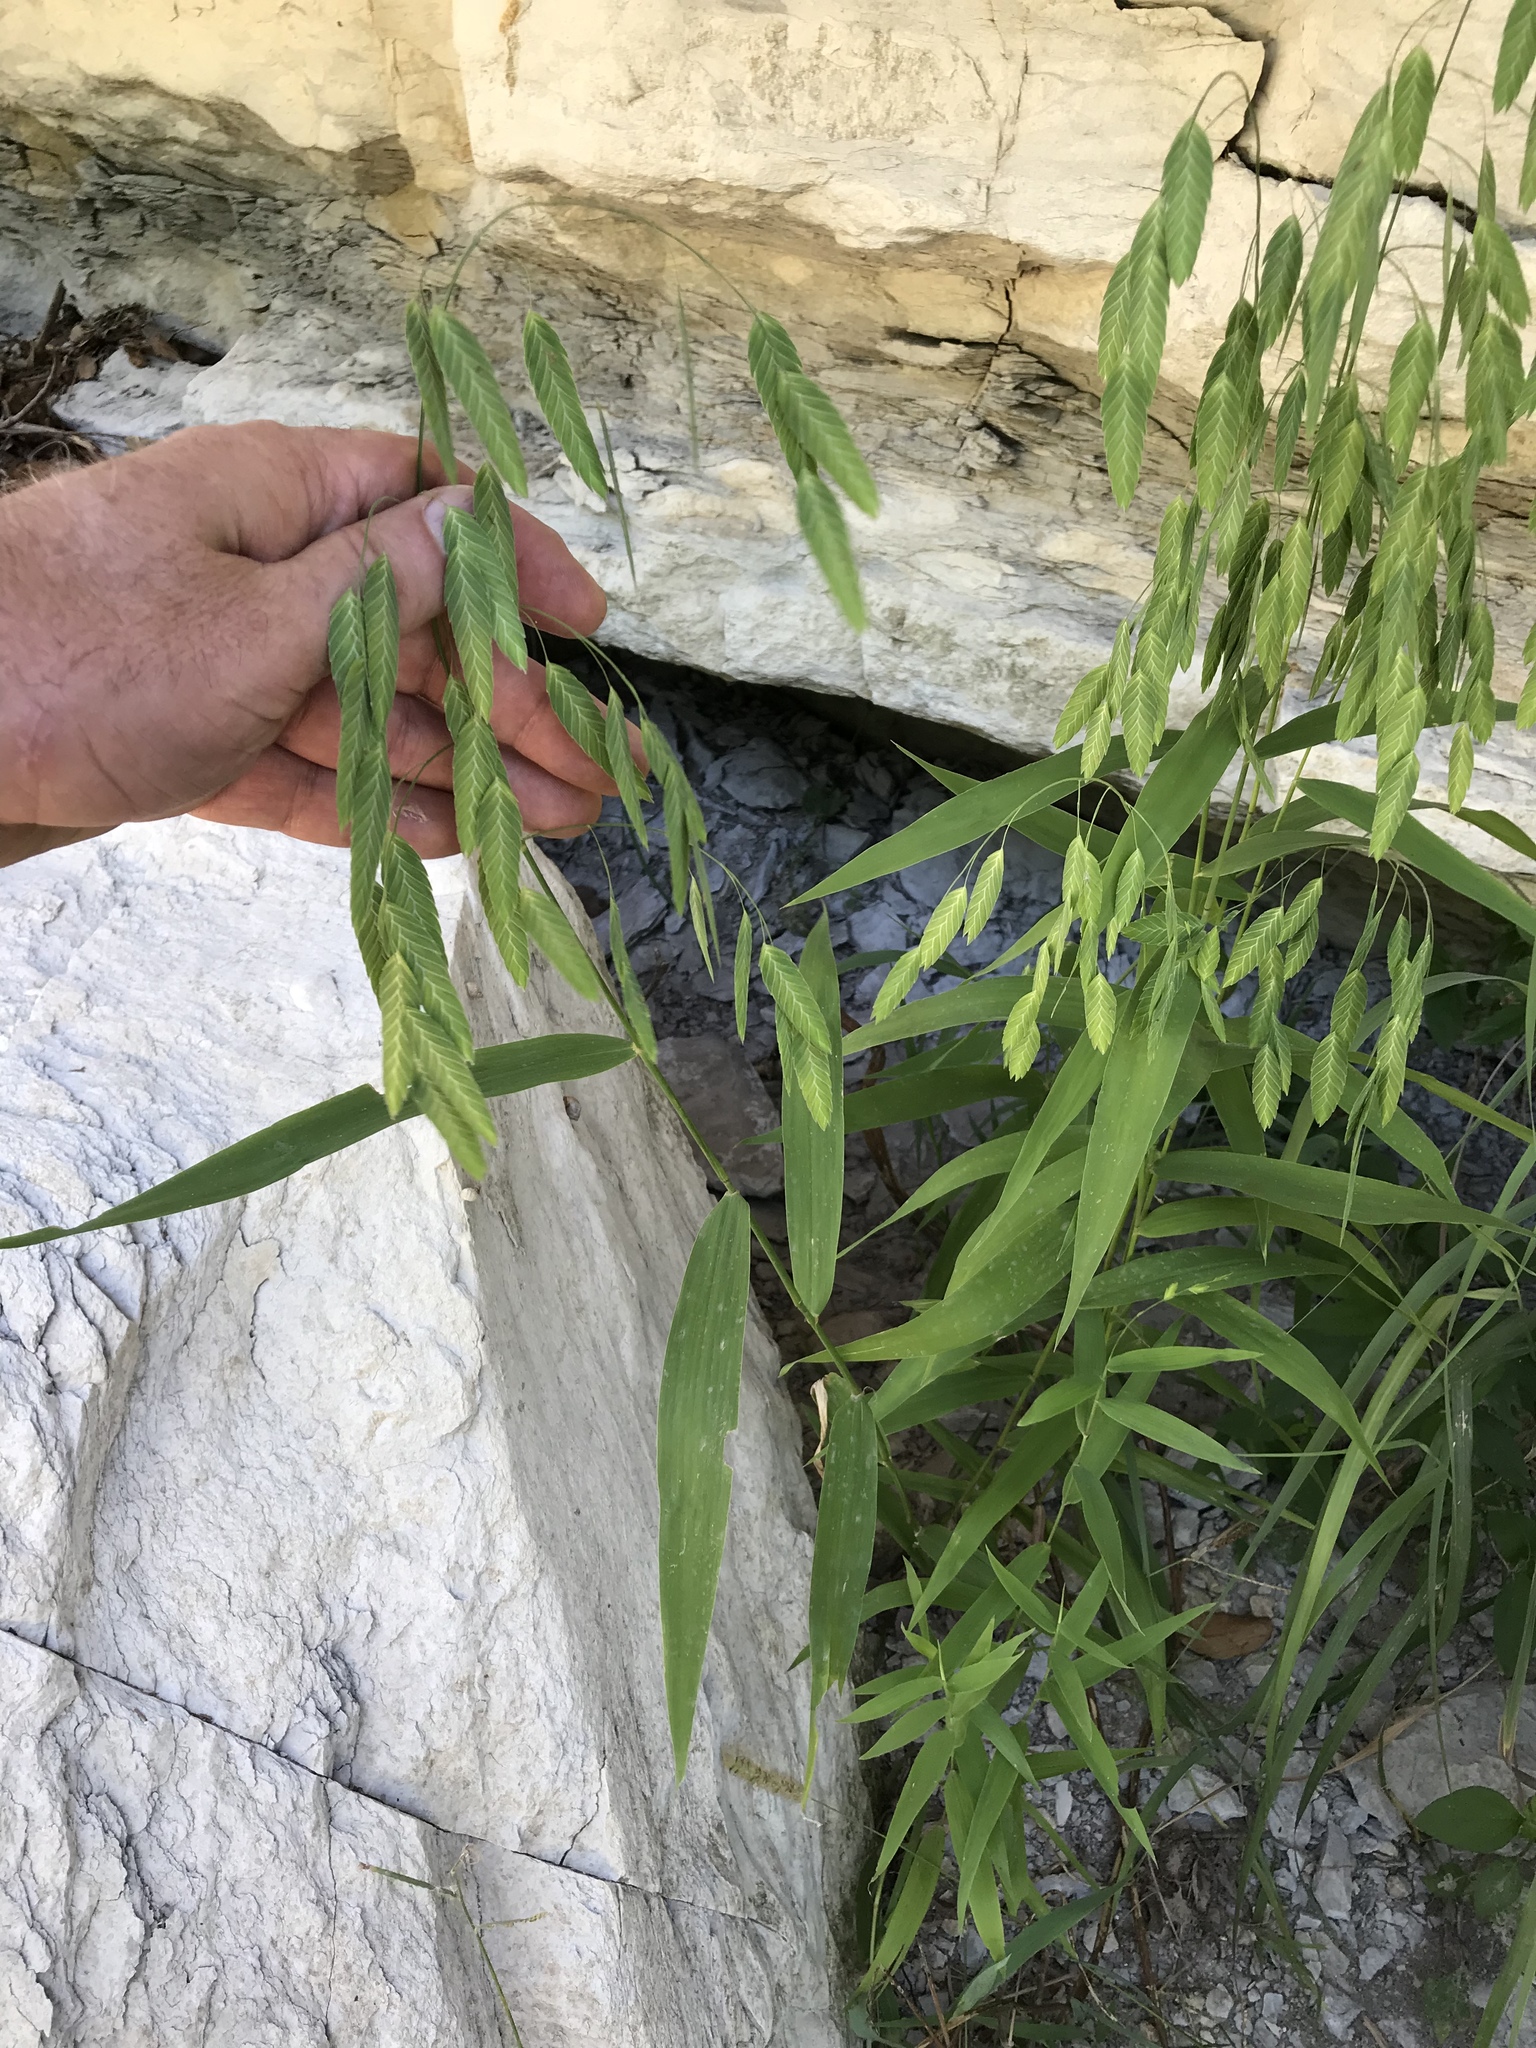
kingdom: Plantae
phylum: Tracheophyta
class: Liliopsida
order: Poales
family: Poaceae
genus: Chasmanthium
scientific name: Chasmanthium latifolium
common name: Broad-leaved chasmanthium
